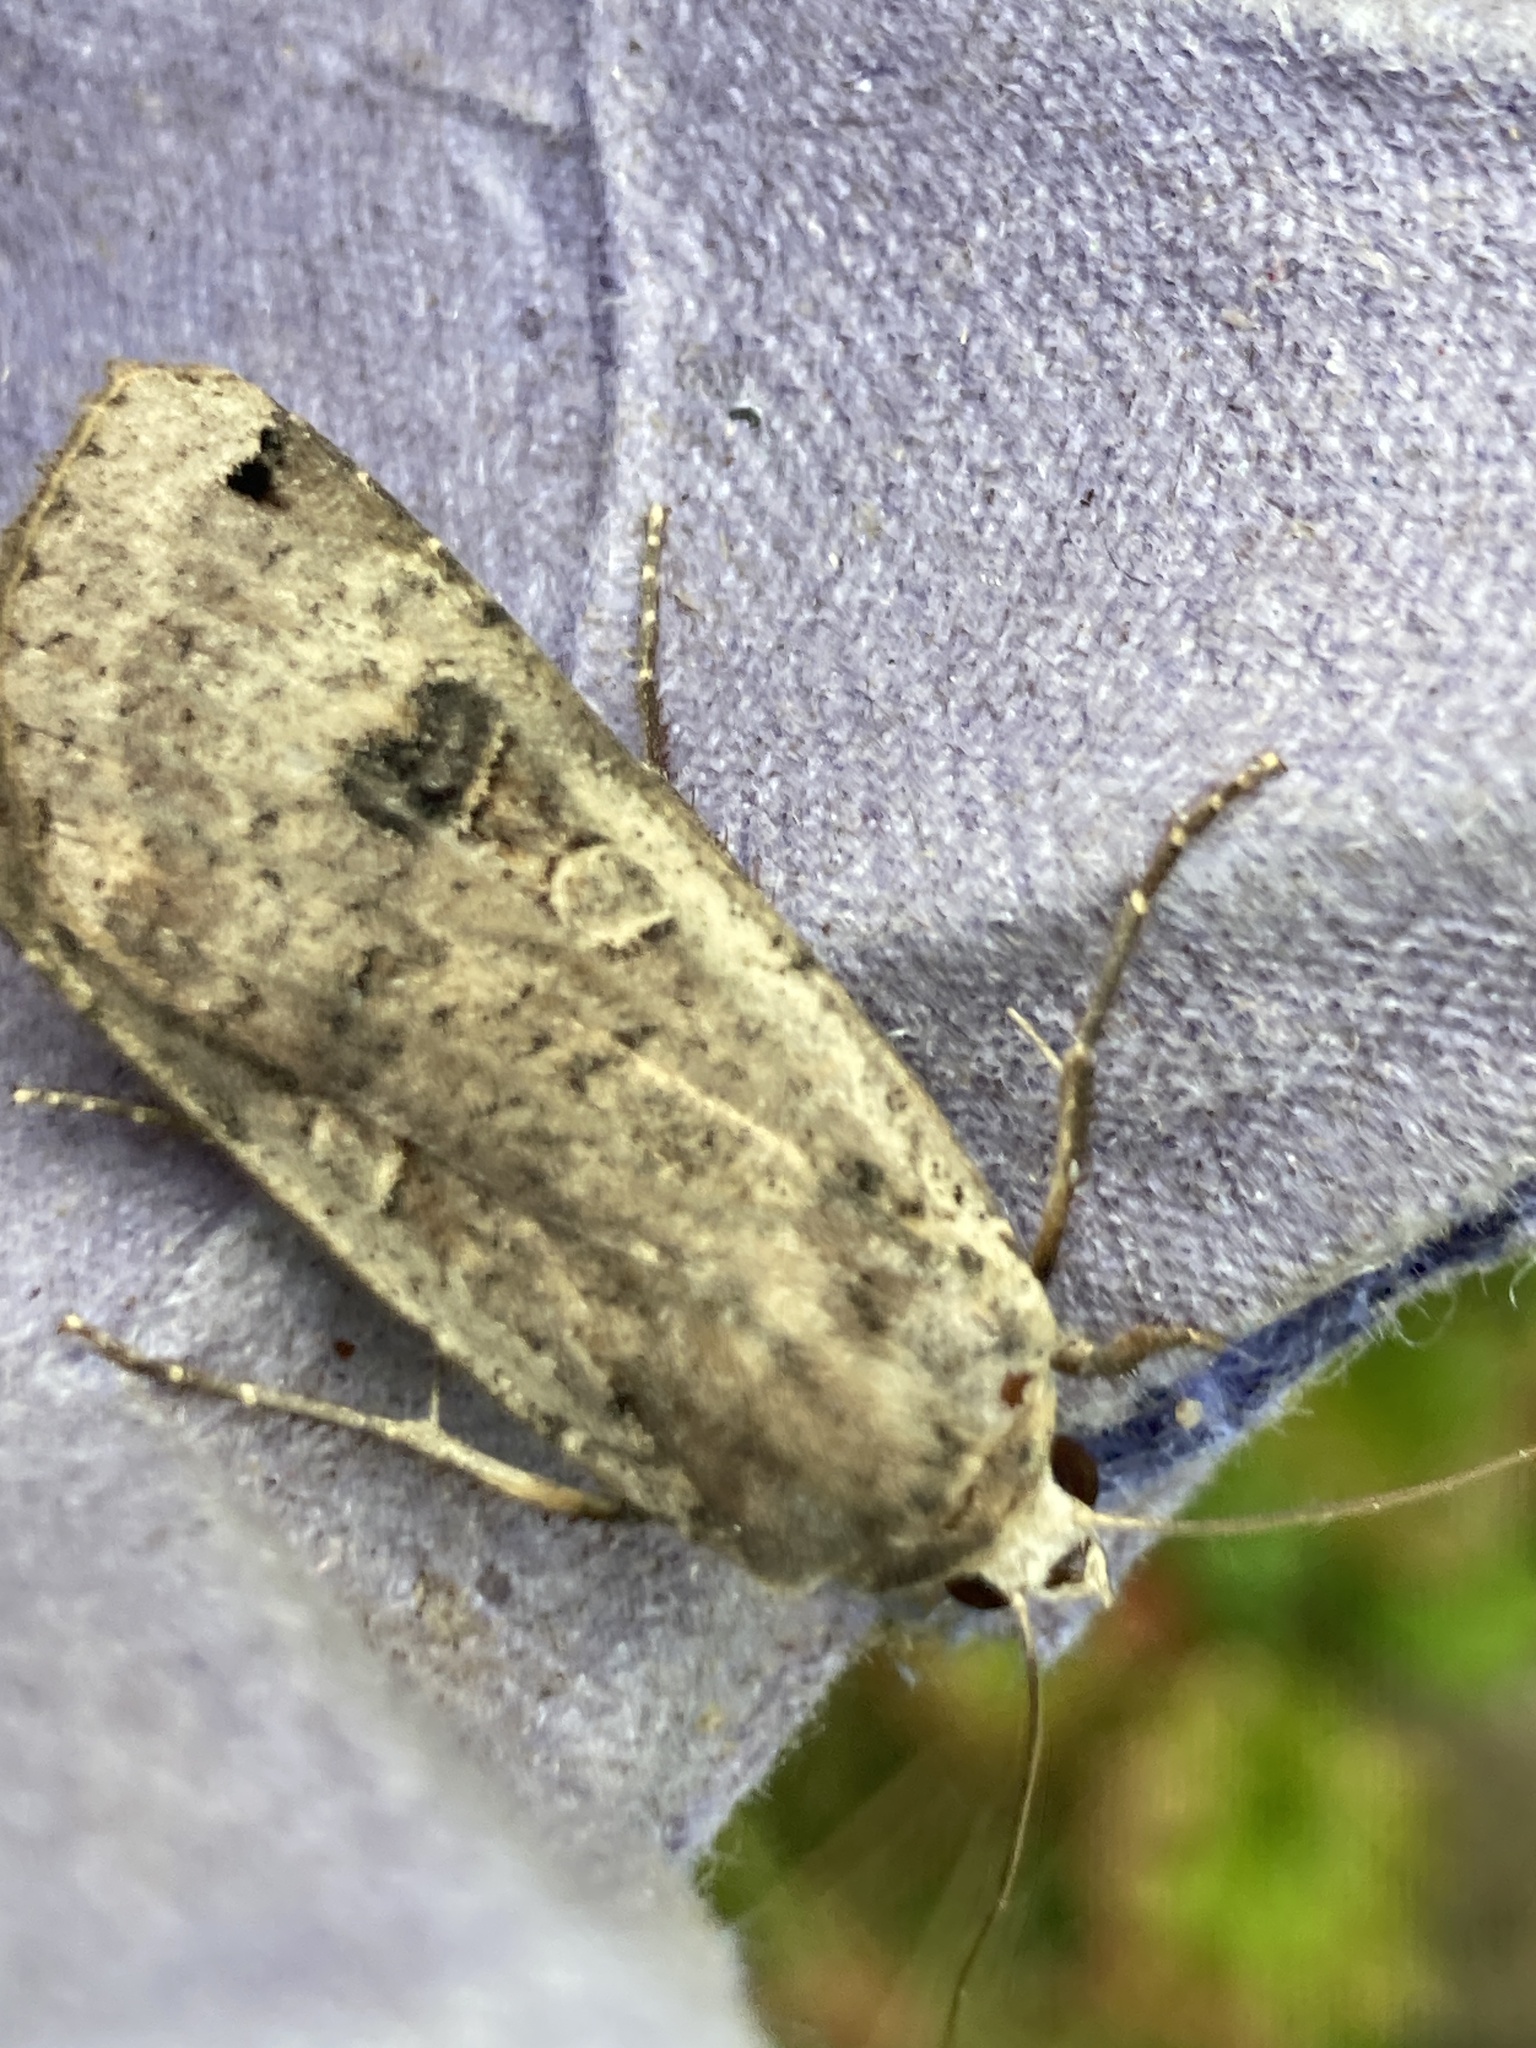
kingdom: Animalia
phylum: Arthropoda
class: Insecta
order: Lepidoptera
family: Noctuidae
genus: Noctua
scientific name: Noctua pronuba
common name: Large yellow underwing
